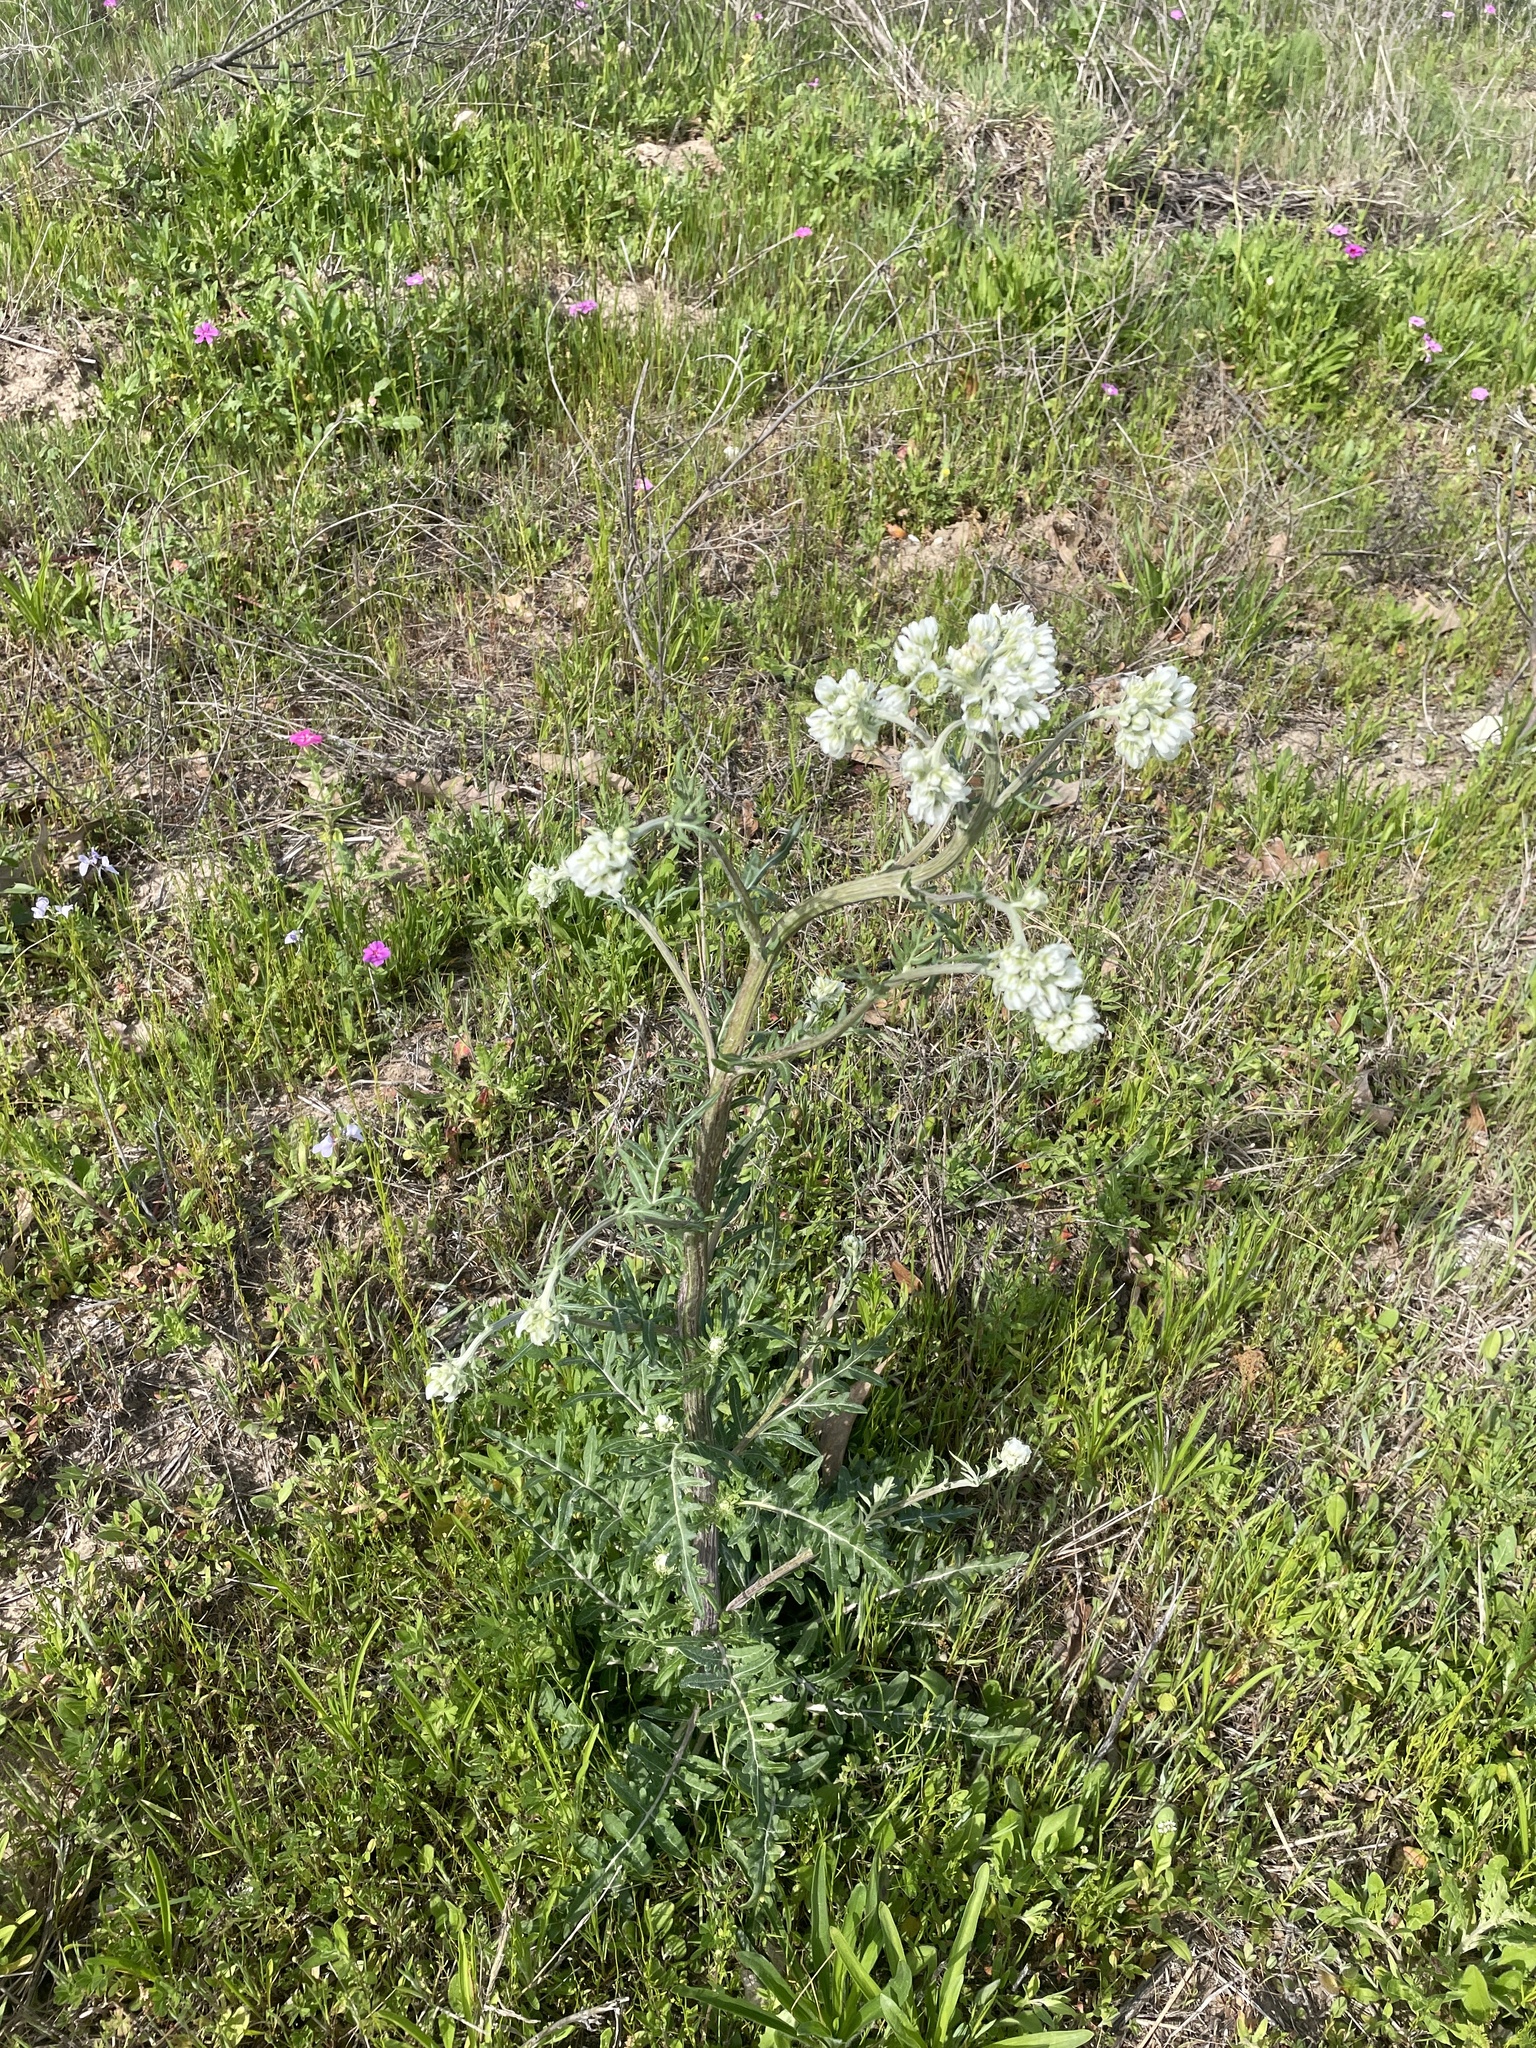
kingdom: Plantae
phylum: Tracheophyta
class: Magnoliopsida
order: Asterales
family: Asteraceae
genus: Hymenopappus
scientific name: Hymenopappus artemisiifolius
